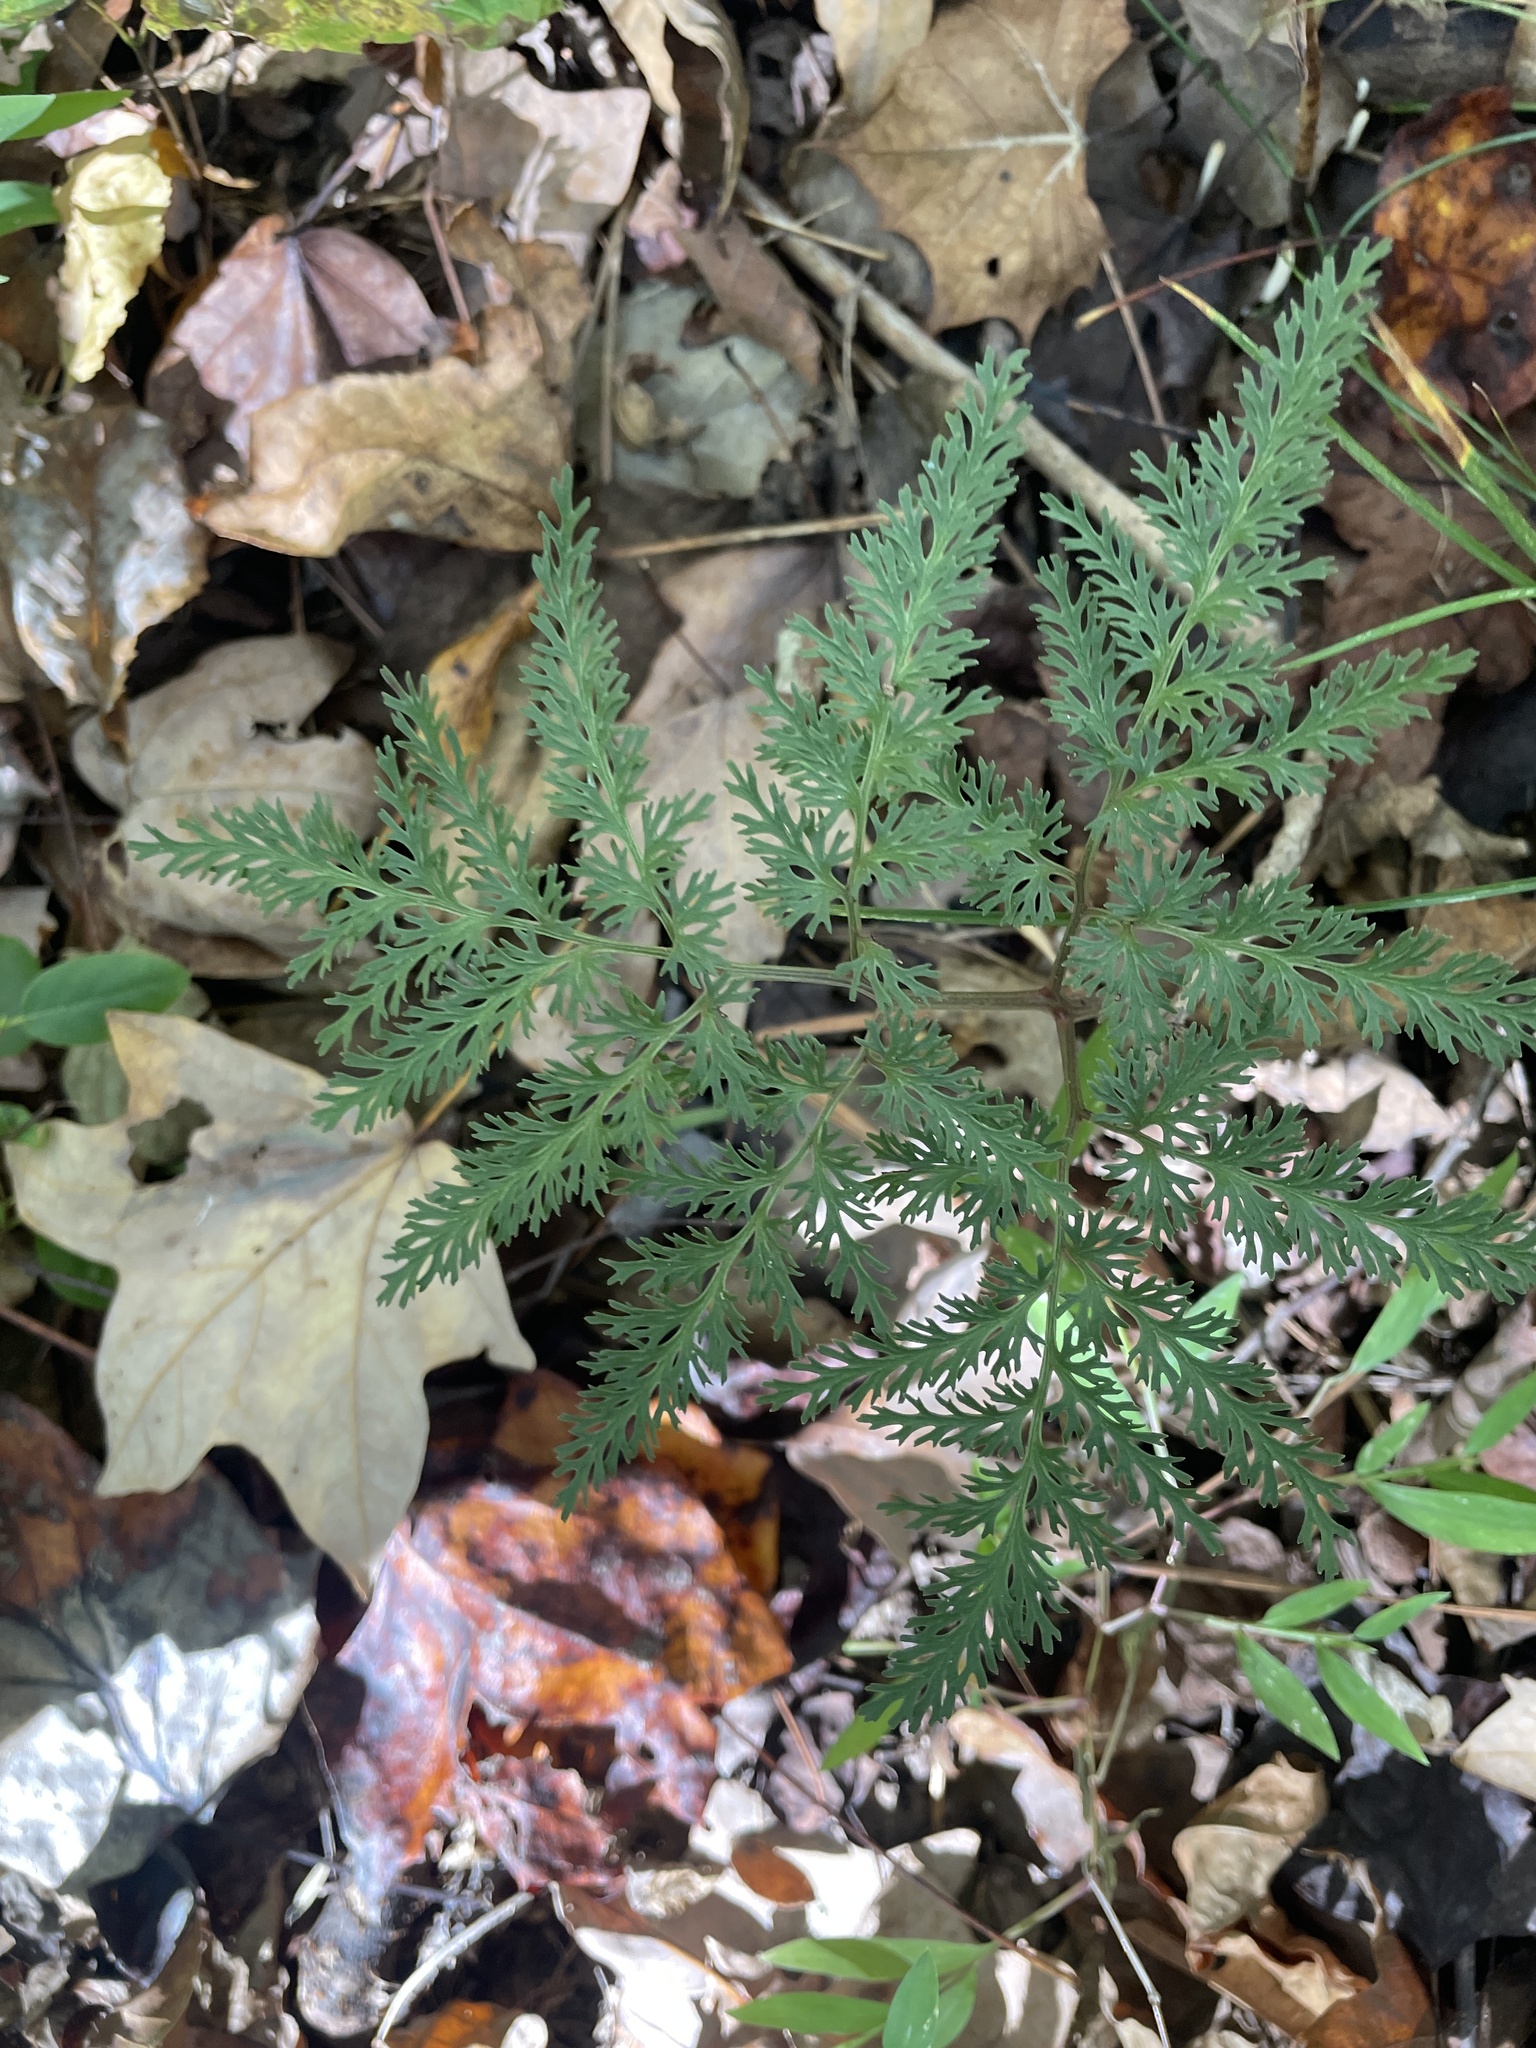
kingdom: Plantae
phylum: Tracheophyta
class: Polypodiopsida
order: Ophioglossales
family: Ophioglossaceae
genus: Sceptridium
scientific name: Sceptridium dissectum
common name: Cut-leaved grapefern
